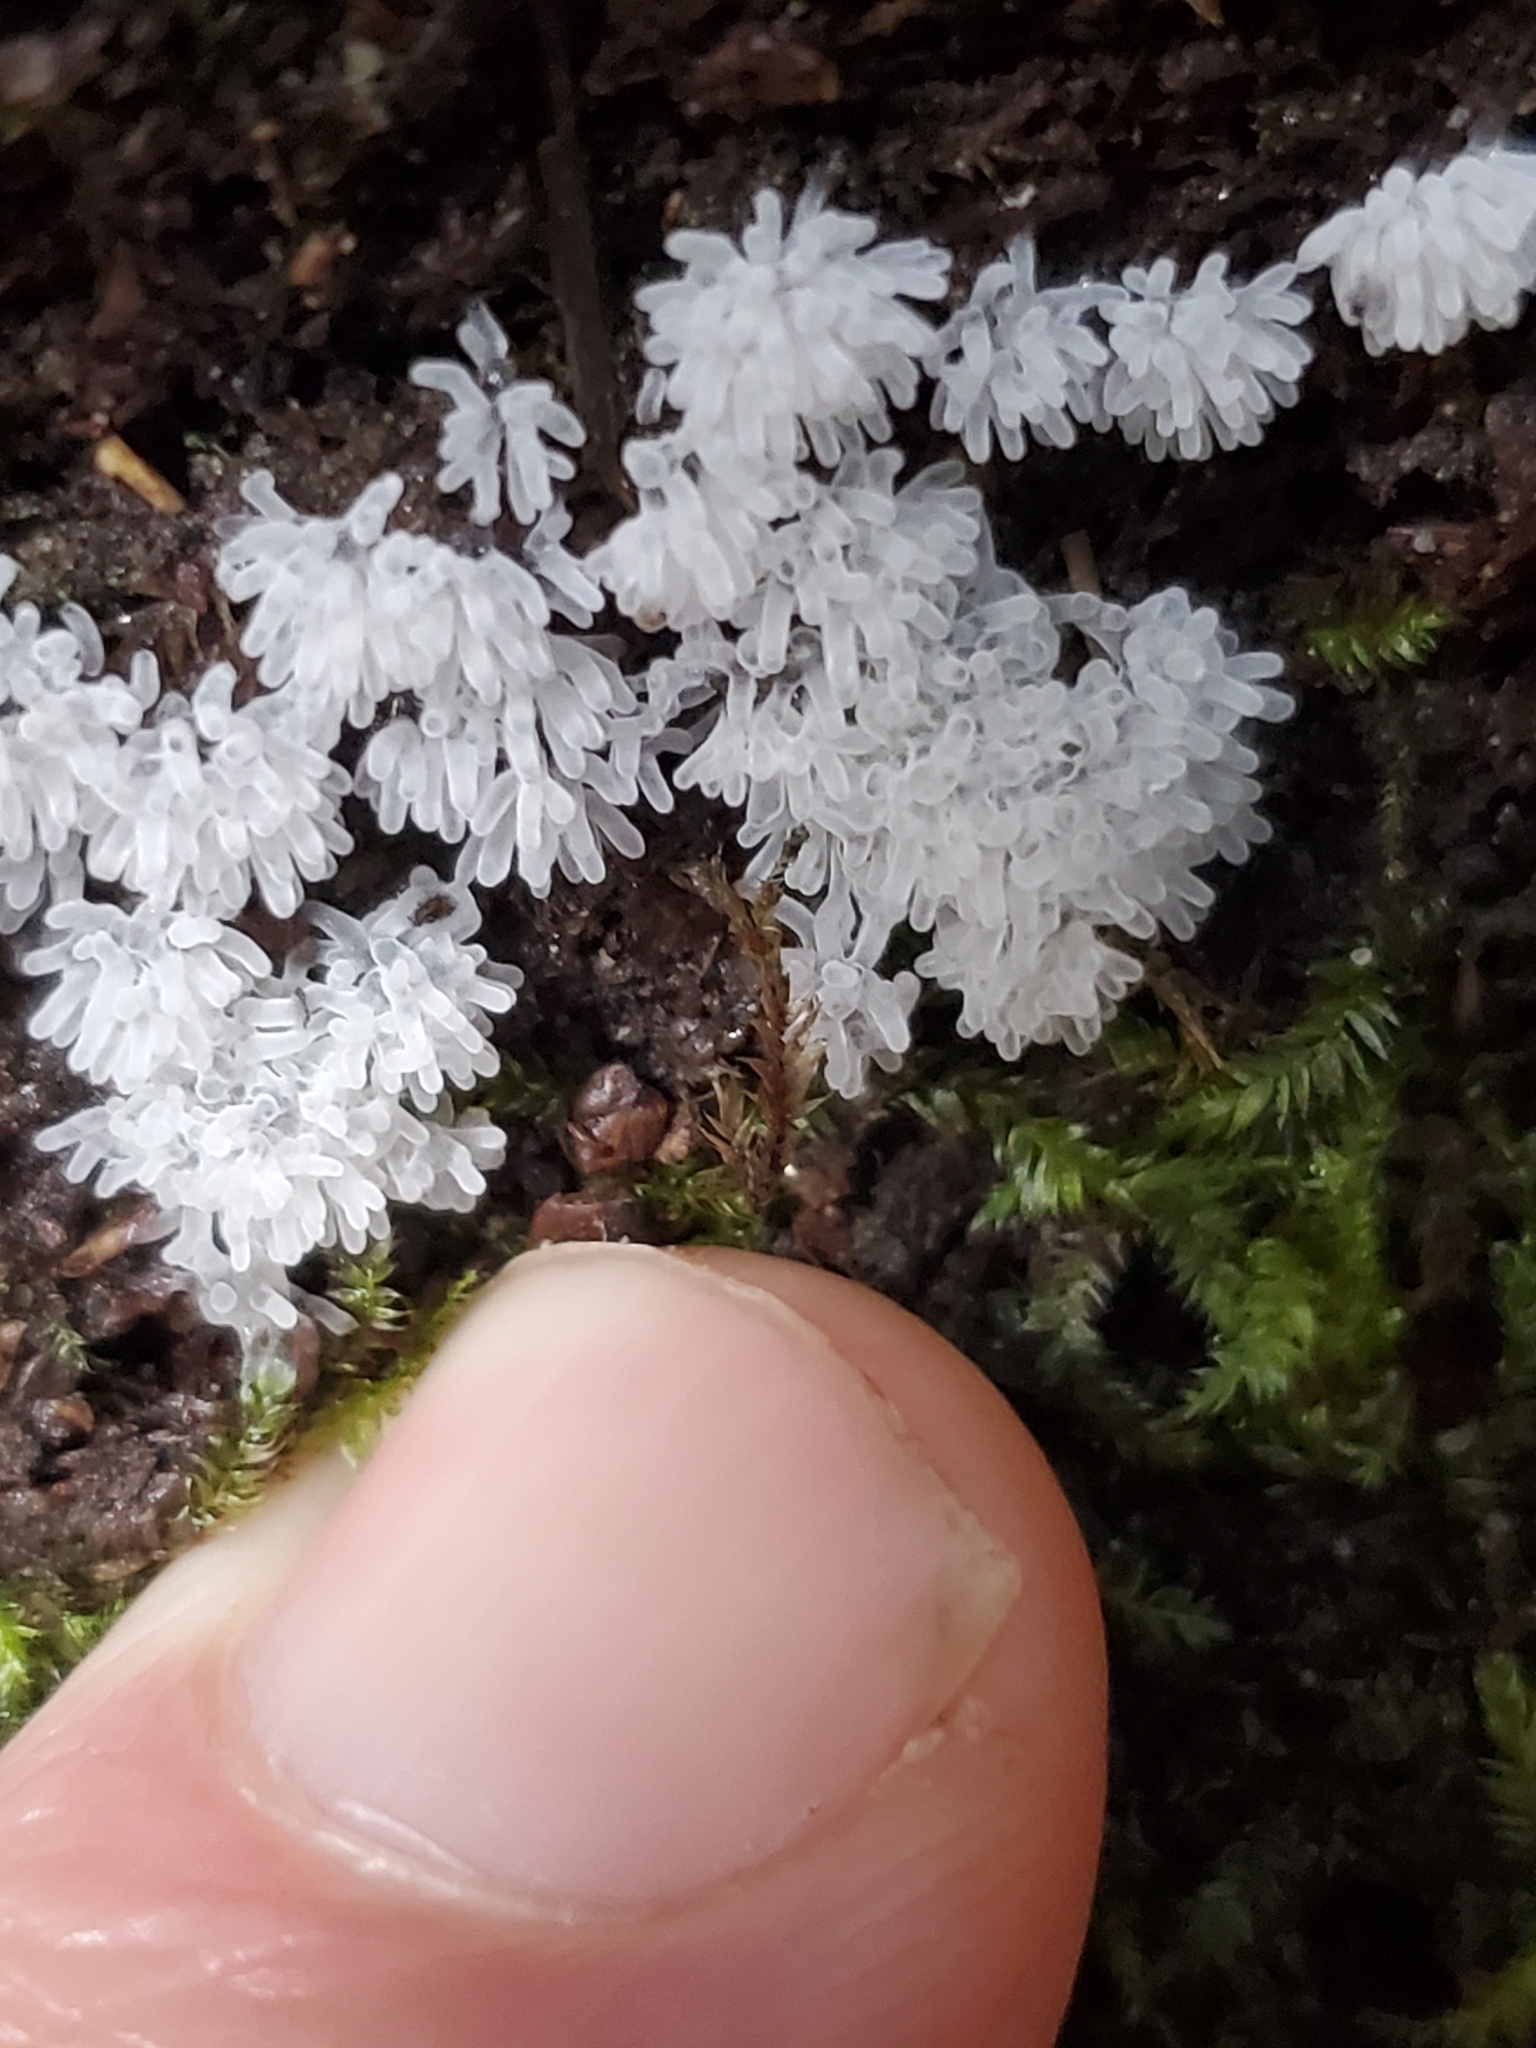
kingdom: Protozoa
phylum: Mycetozoa
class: Protosteliomycetes
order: Ceratiomyxales
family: Ceratiomyxaceae
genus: Ceratiomyxa
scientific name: Ceratiomyxa fruticulosa
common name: Honeycomb coral slime mold
